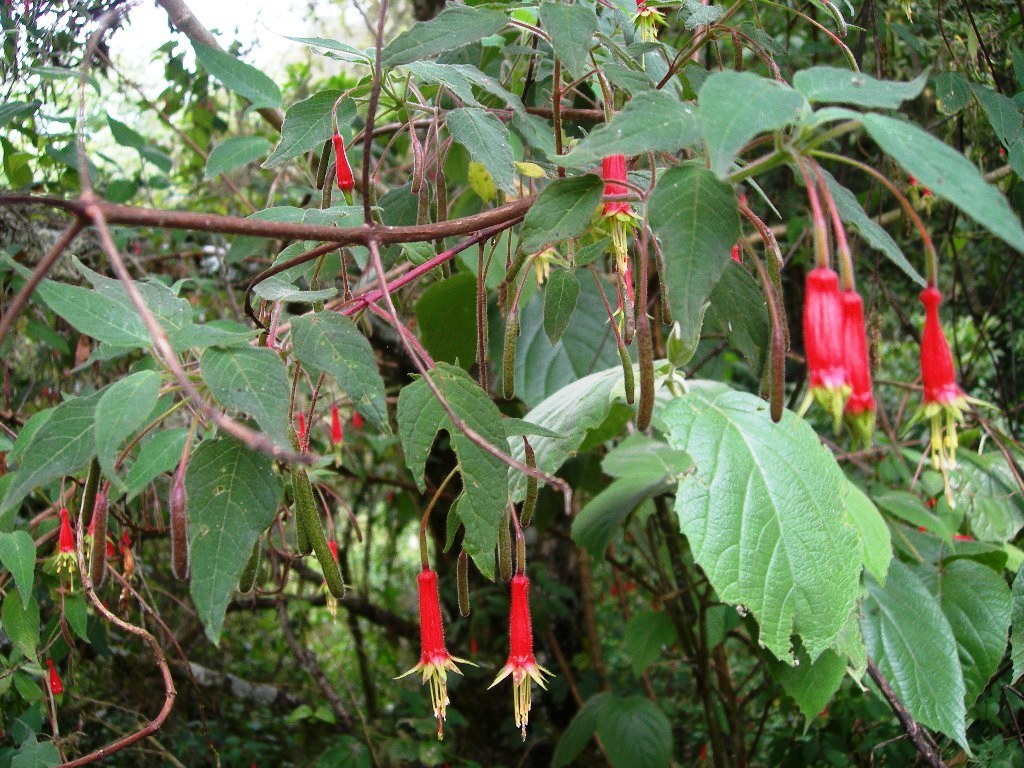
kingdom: Plantae
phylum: Tracheophyta
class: Magnoliopsida
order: Myrtales
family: Onagraceae
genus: Fuchsia
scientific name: Fuchsia splendens
